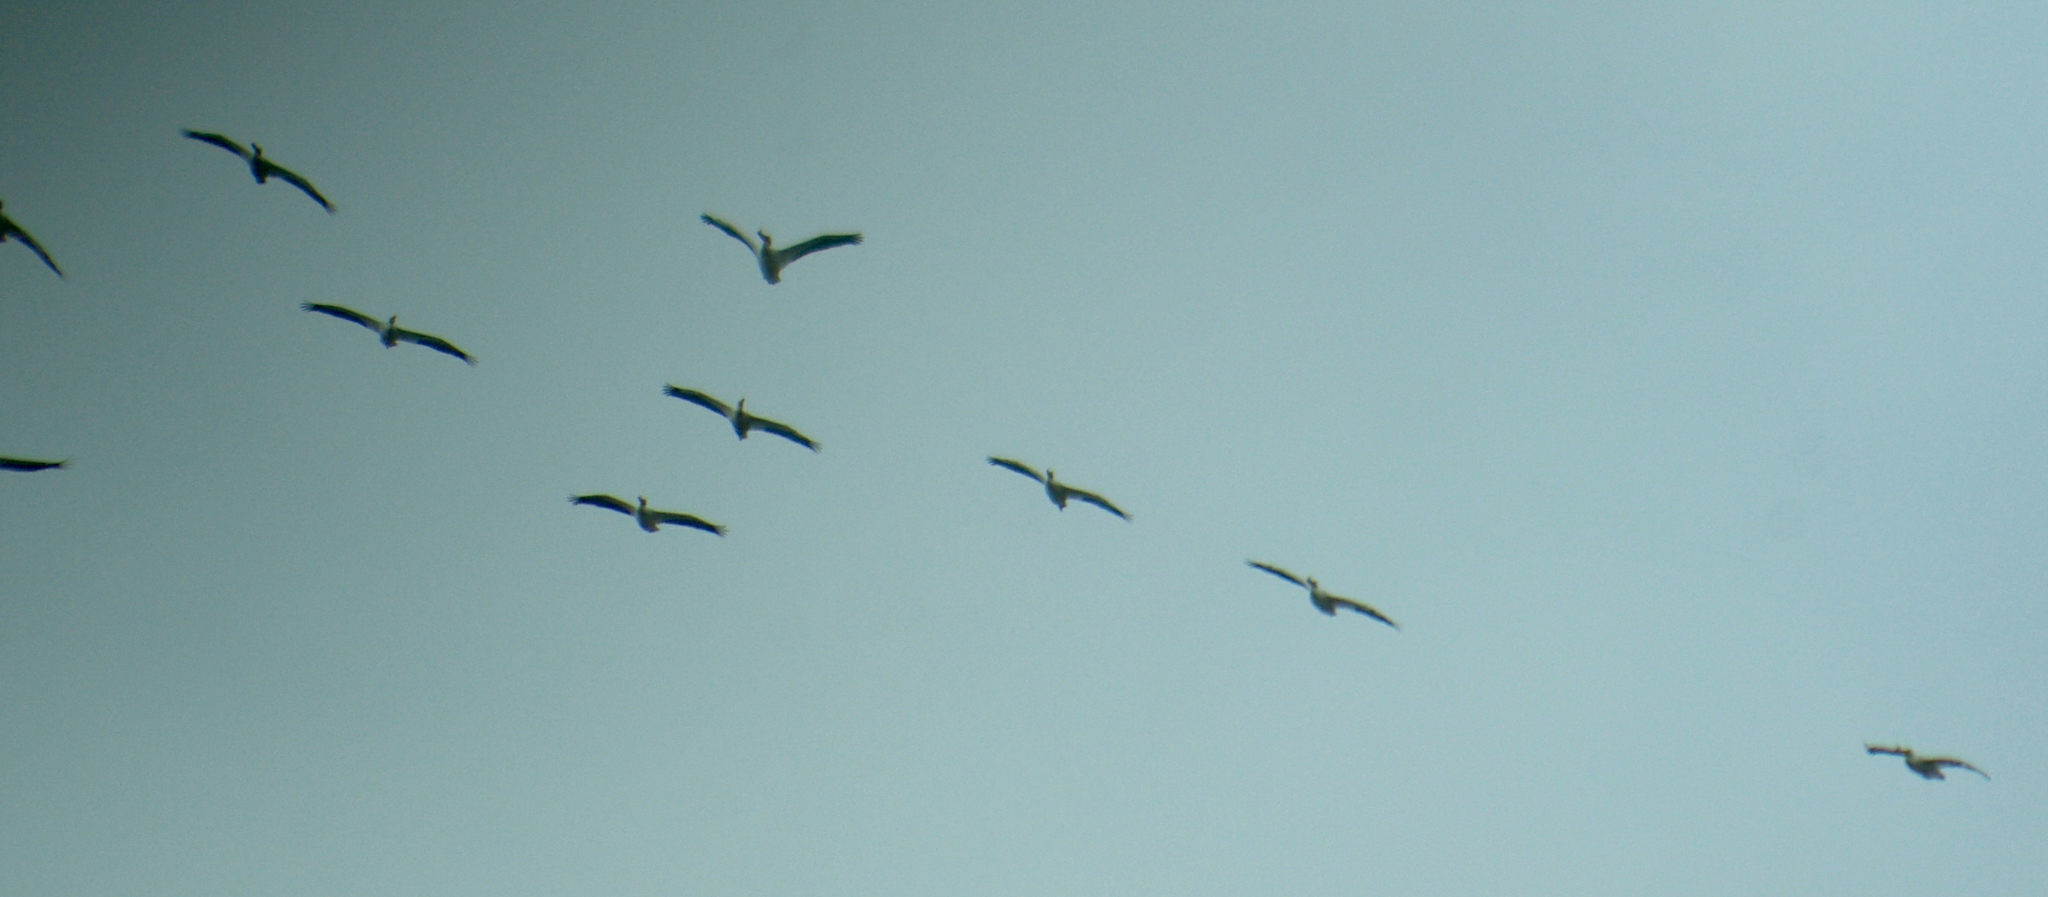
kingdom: Animalia
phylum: Chordata
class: Aves
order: Pelecaniformes
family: Pelecanidae
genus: Pelecanus
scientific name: Pelecanus erythrorhynchos
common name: American white pelican
